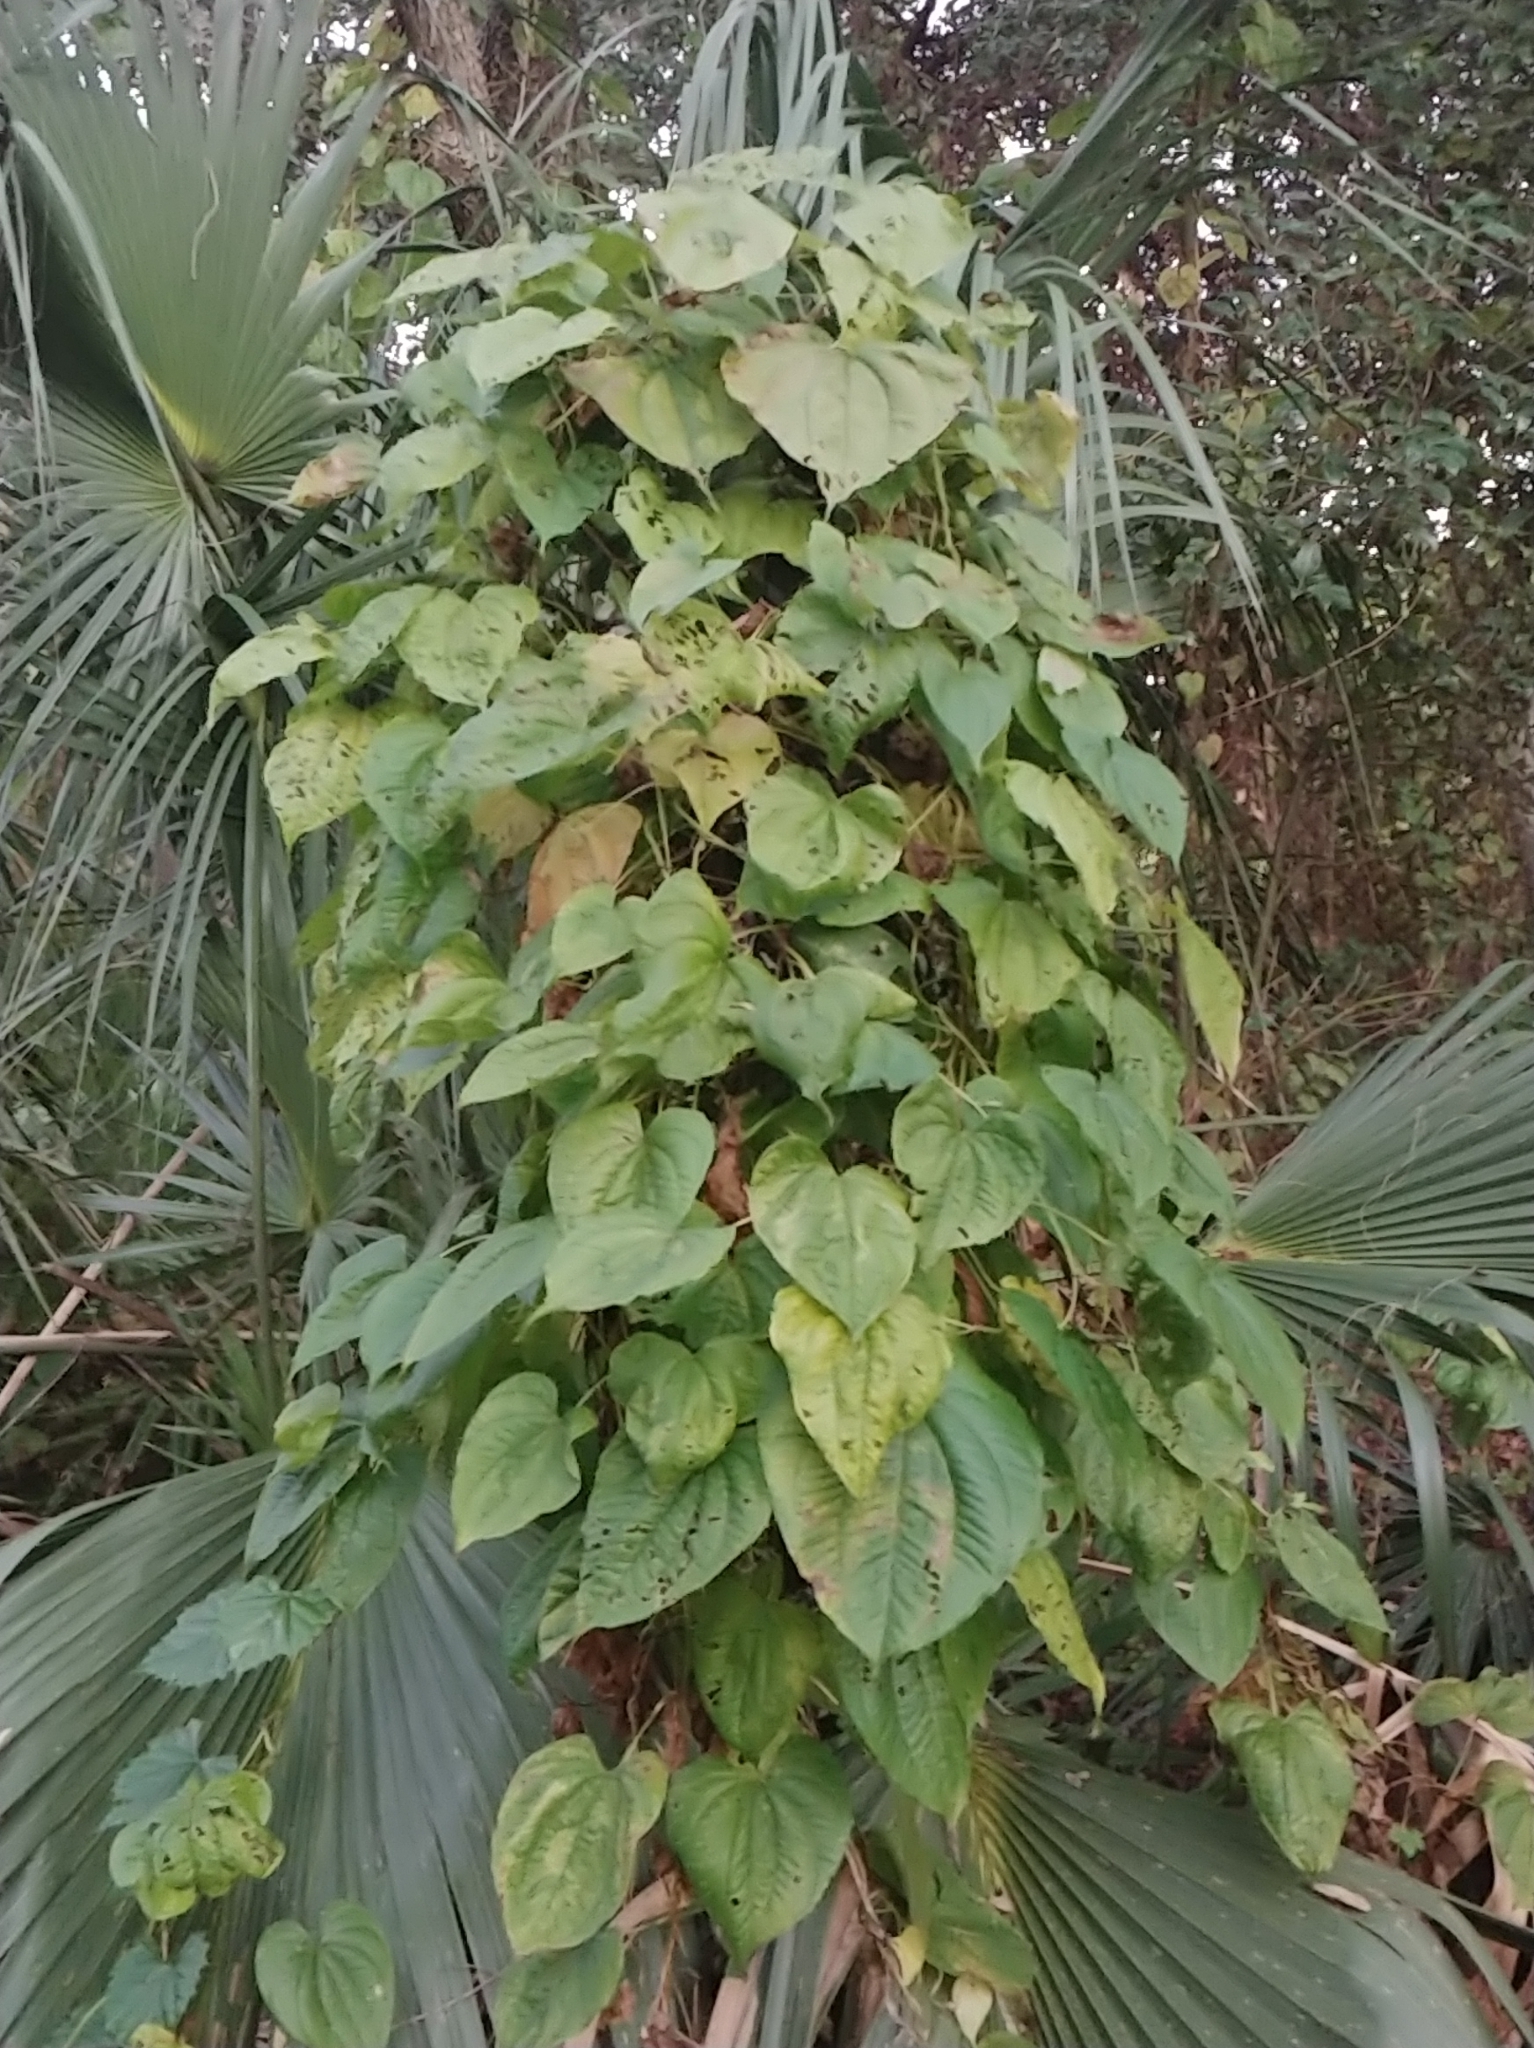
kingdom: Plantae
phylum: Tracheophyta
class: Liliopsida
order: Dioscoreales
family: Dioscoreaceae
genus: Dioscorea
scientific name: Dioscorea bulbifera
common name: Air yam
